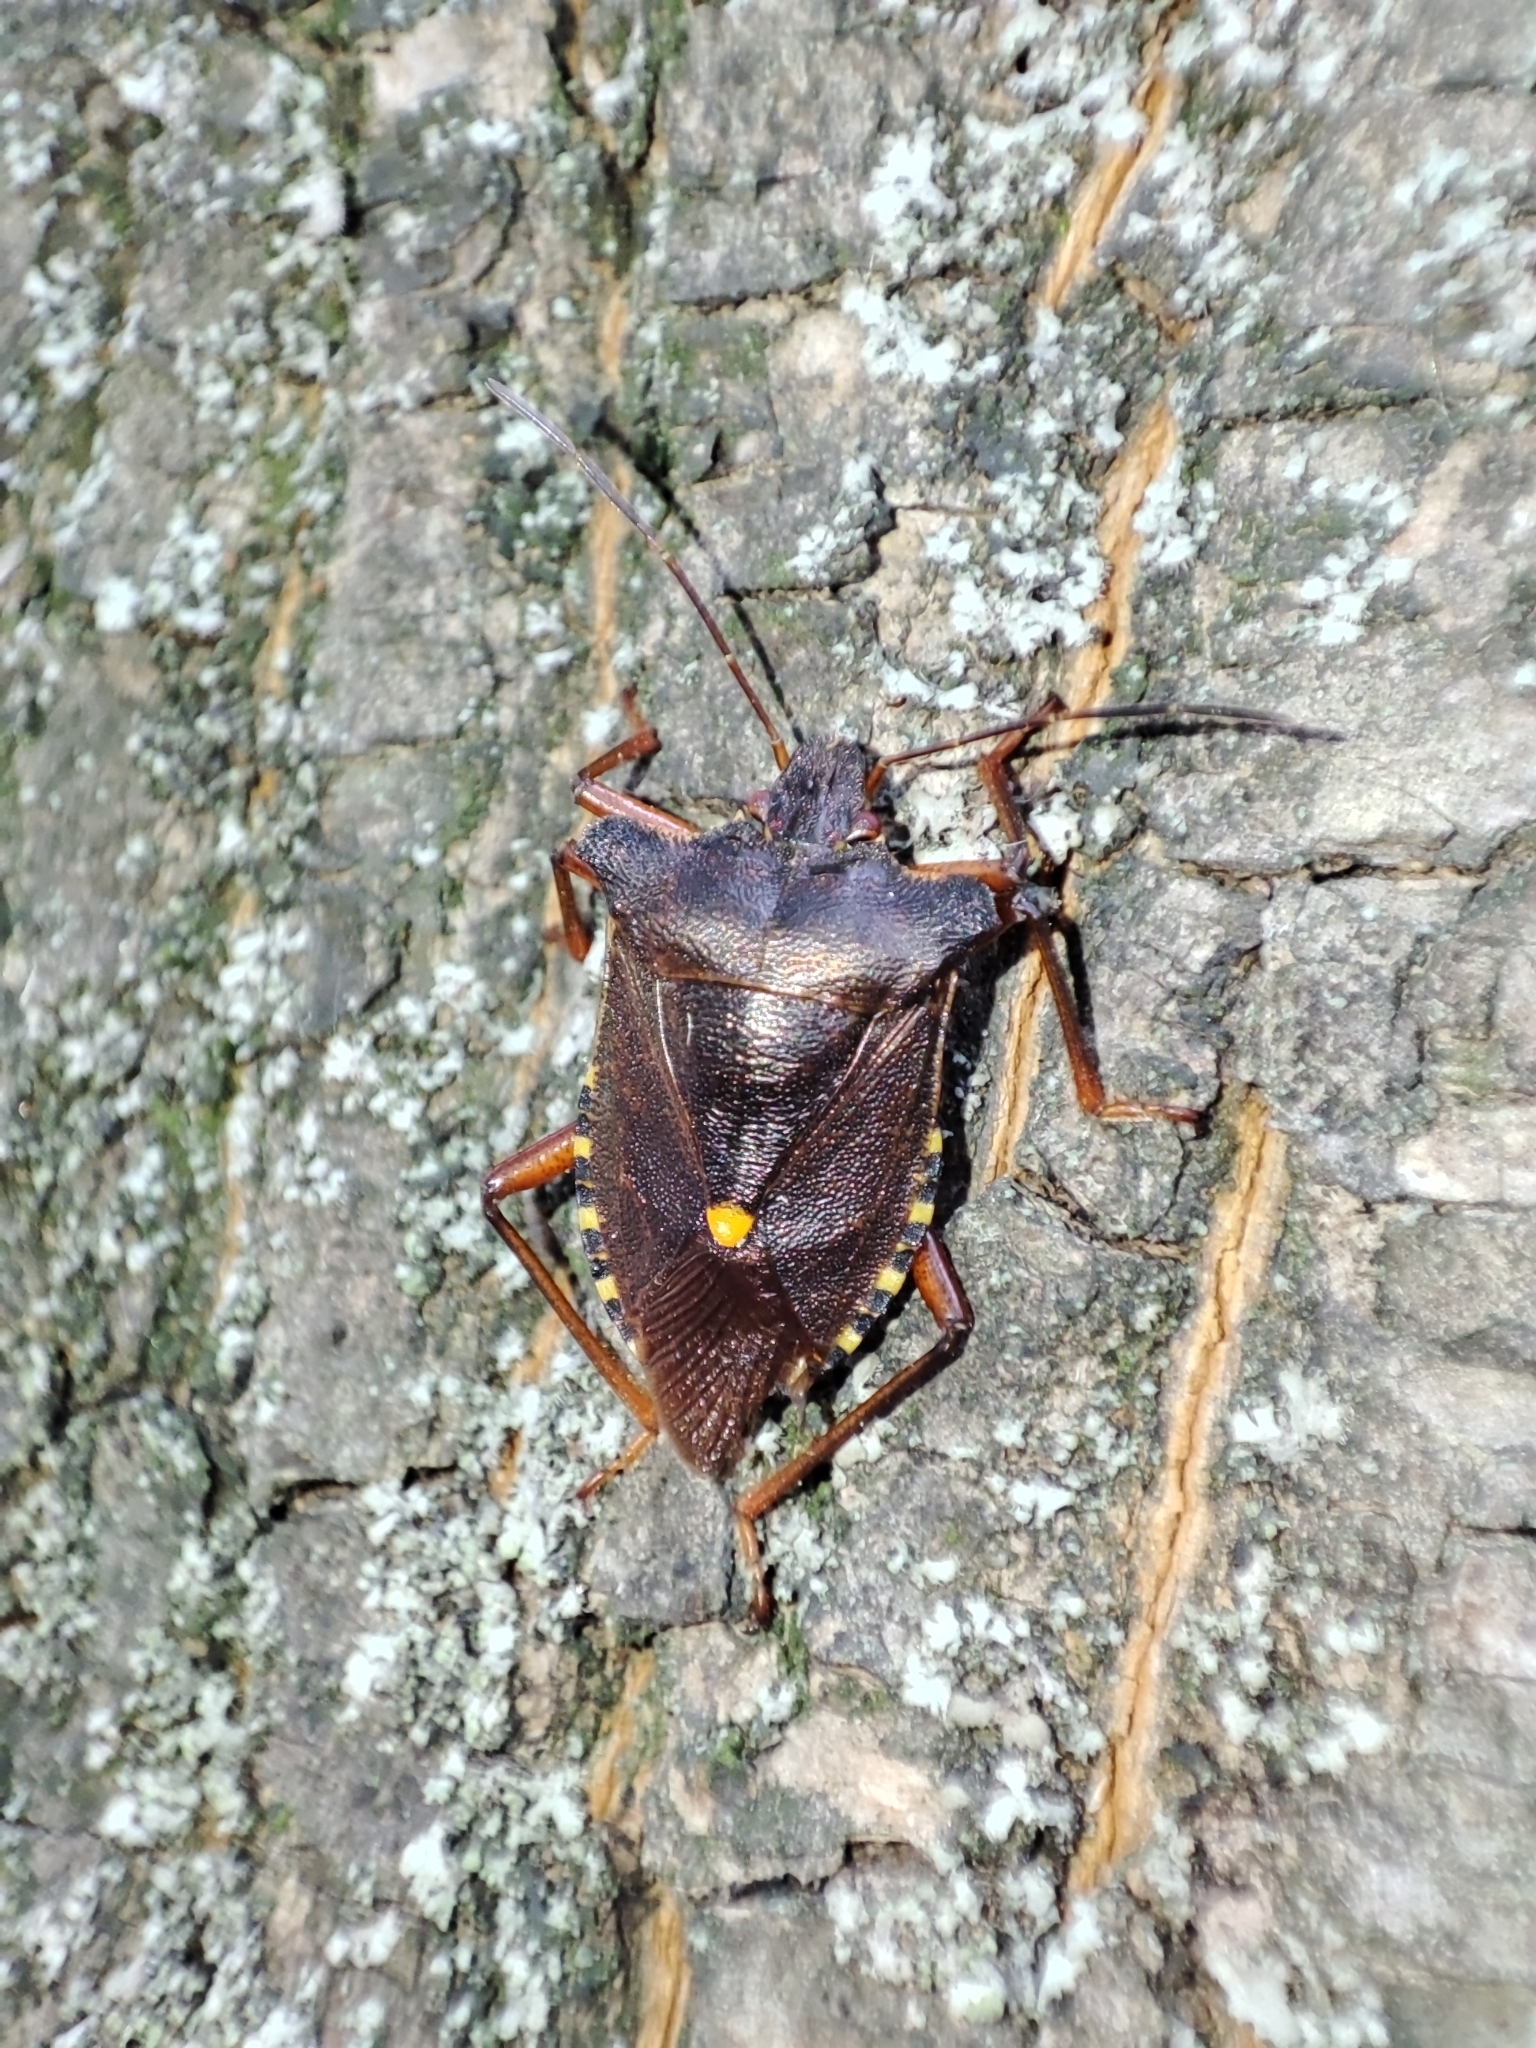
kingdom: Animalia
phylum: Arthropoda
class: Insecta
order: Hemiptera
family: Pentatomidae
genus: Pentatoma
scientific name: Pentatoma rufipes
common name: Forest bug
